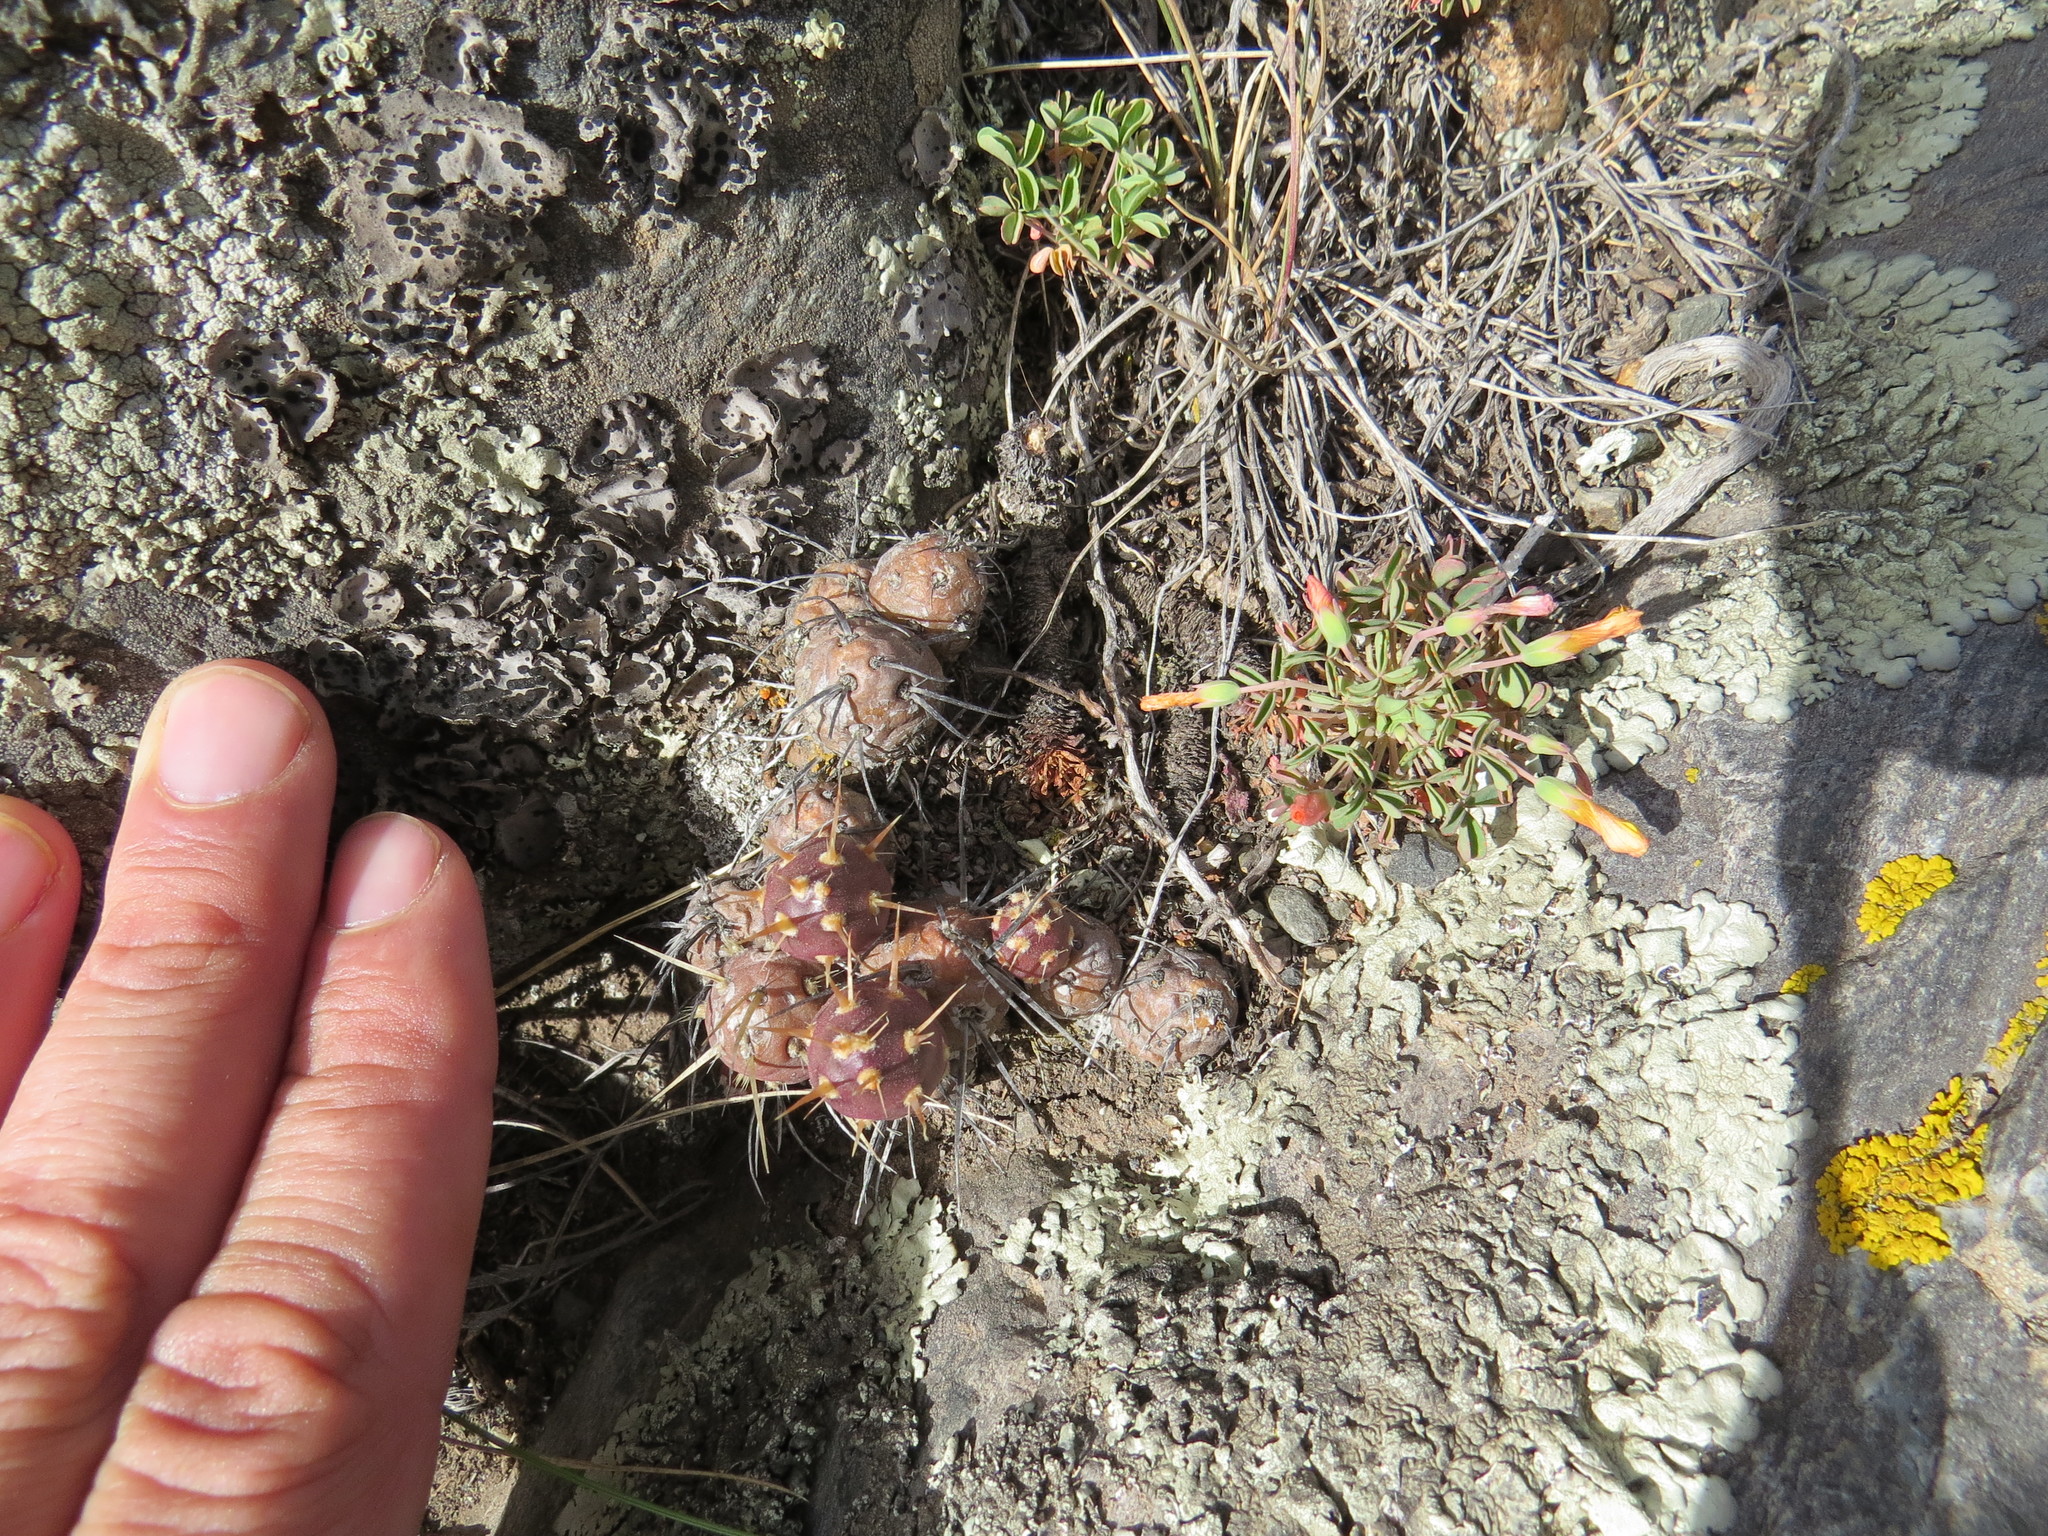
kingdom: Plantae
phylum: Tracheophyta
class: Magnoliopsida
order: Caryophyllales
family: Cactaceae
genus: Maihueniopsis
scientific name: Maihueniopsis ovata
